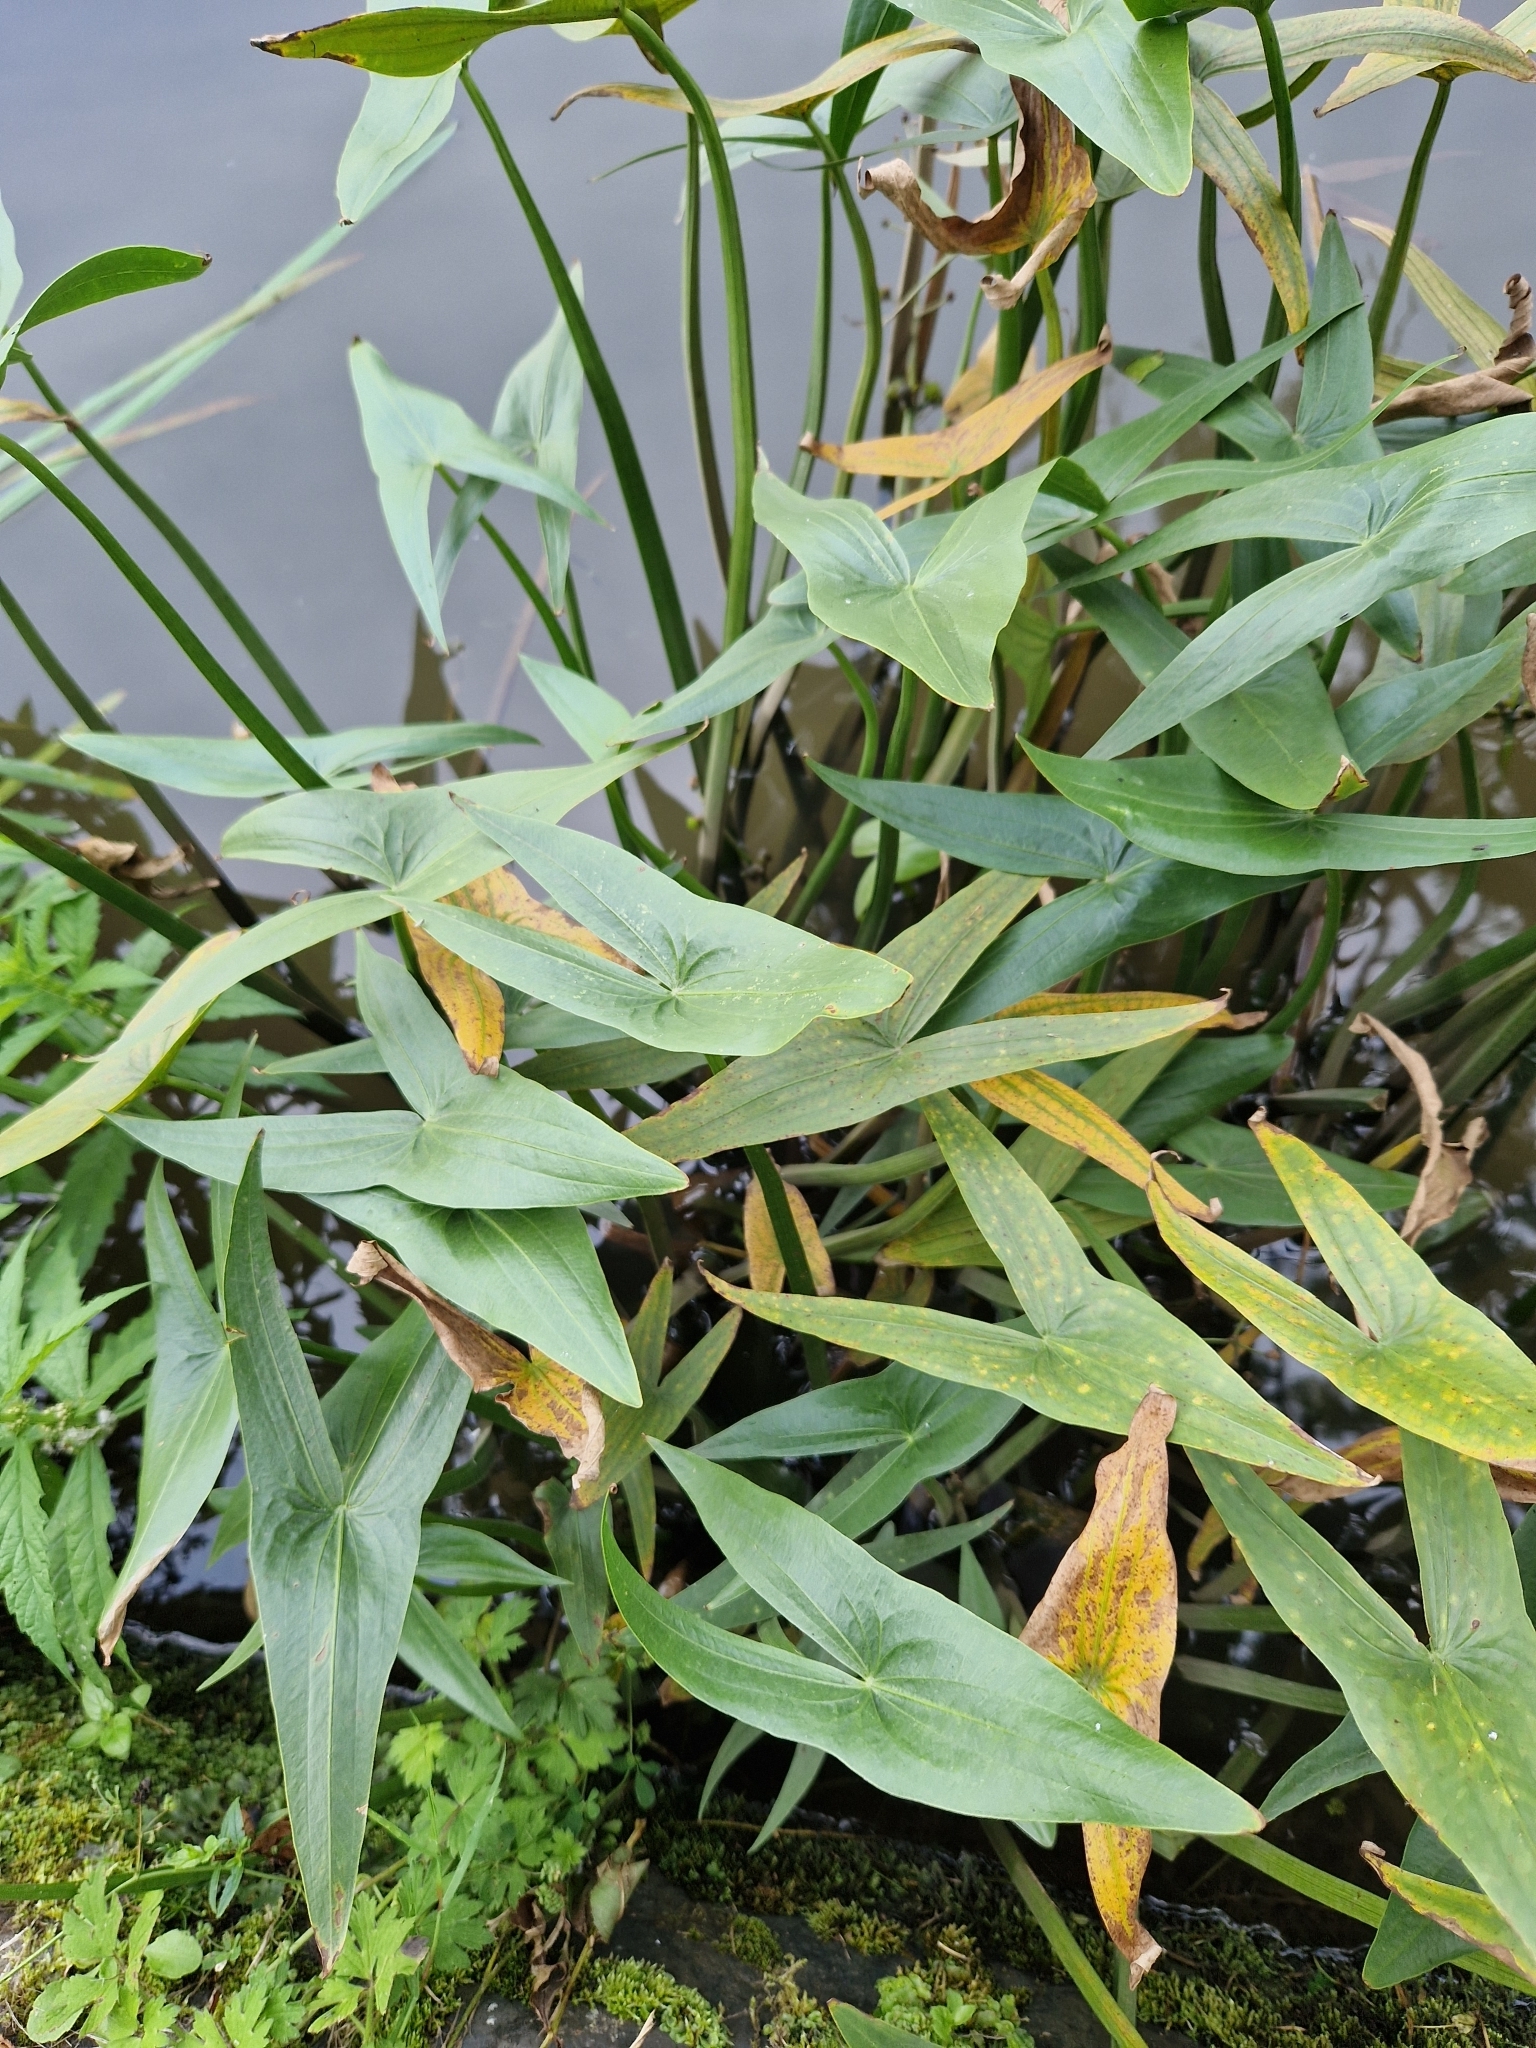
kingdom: Plantae
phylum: Tracheophyta
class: Liliopsida
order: Alismatales
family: Alismataceae
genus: Sagittaria
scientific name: Sagittaria sagittifolia
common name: Arrowhead
